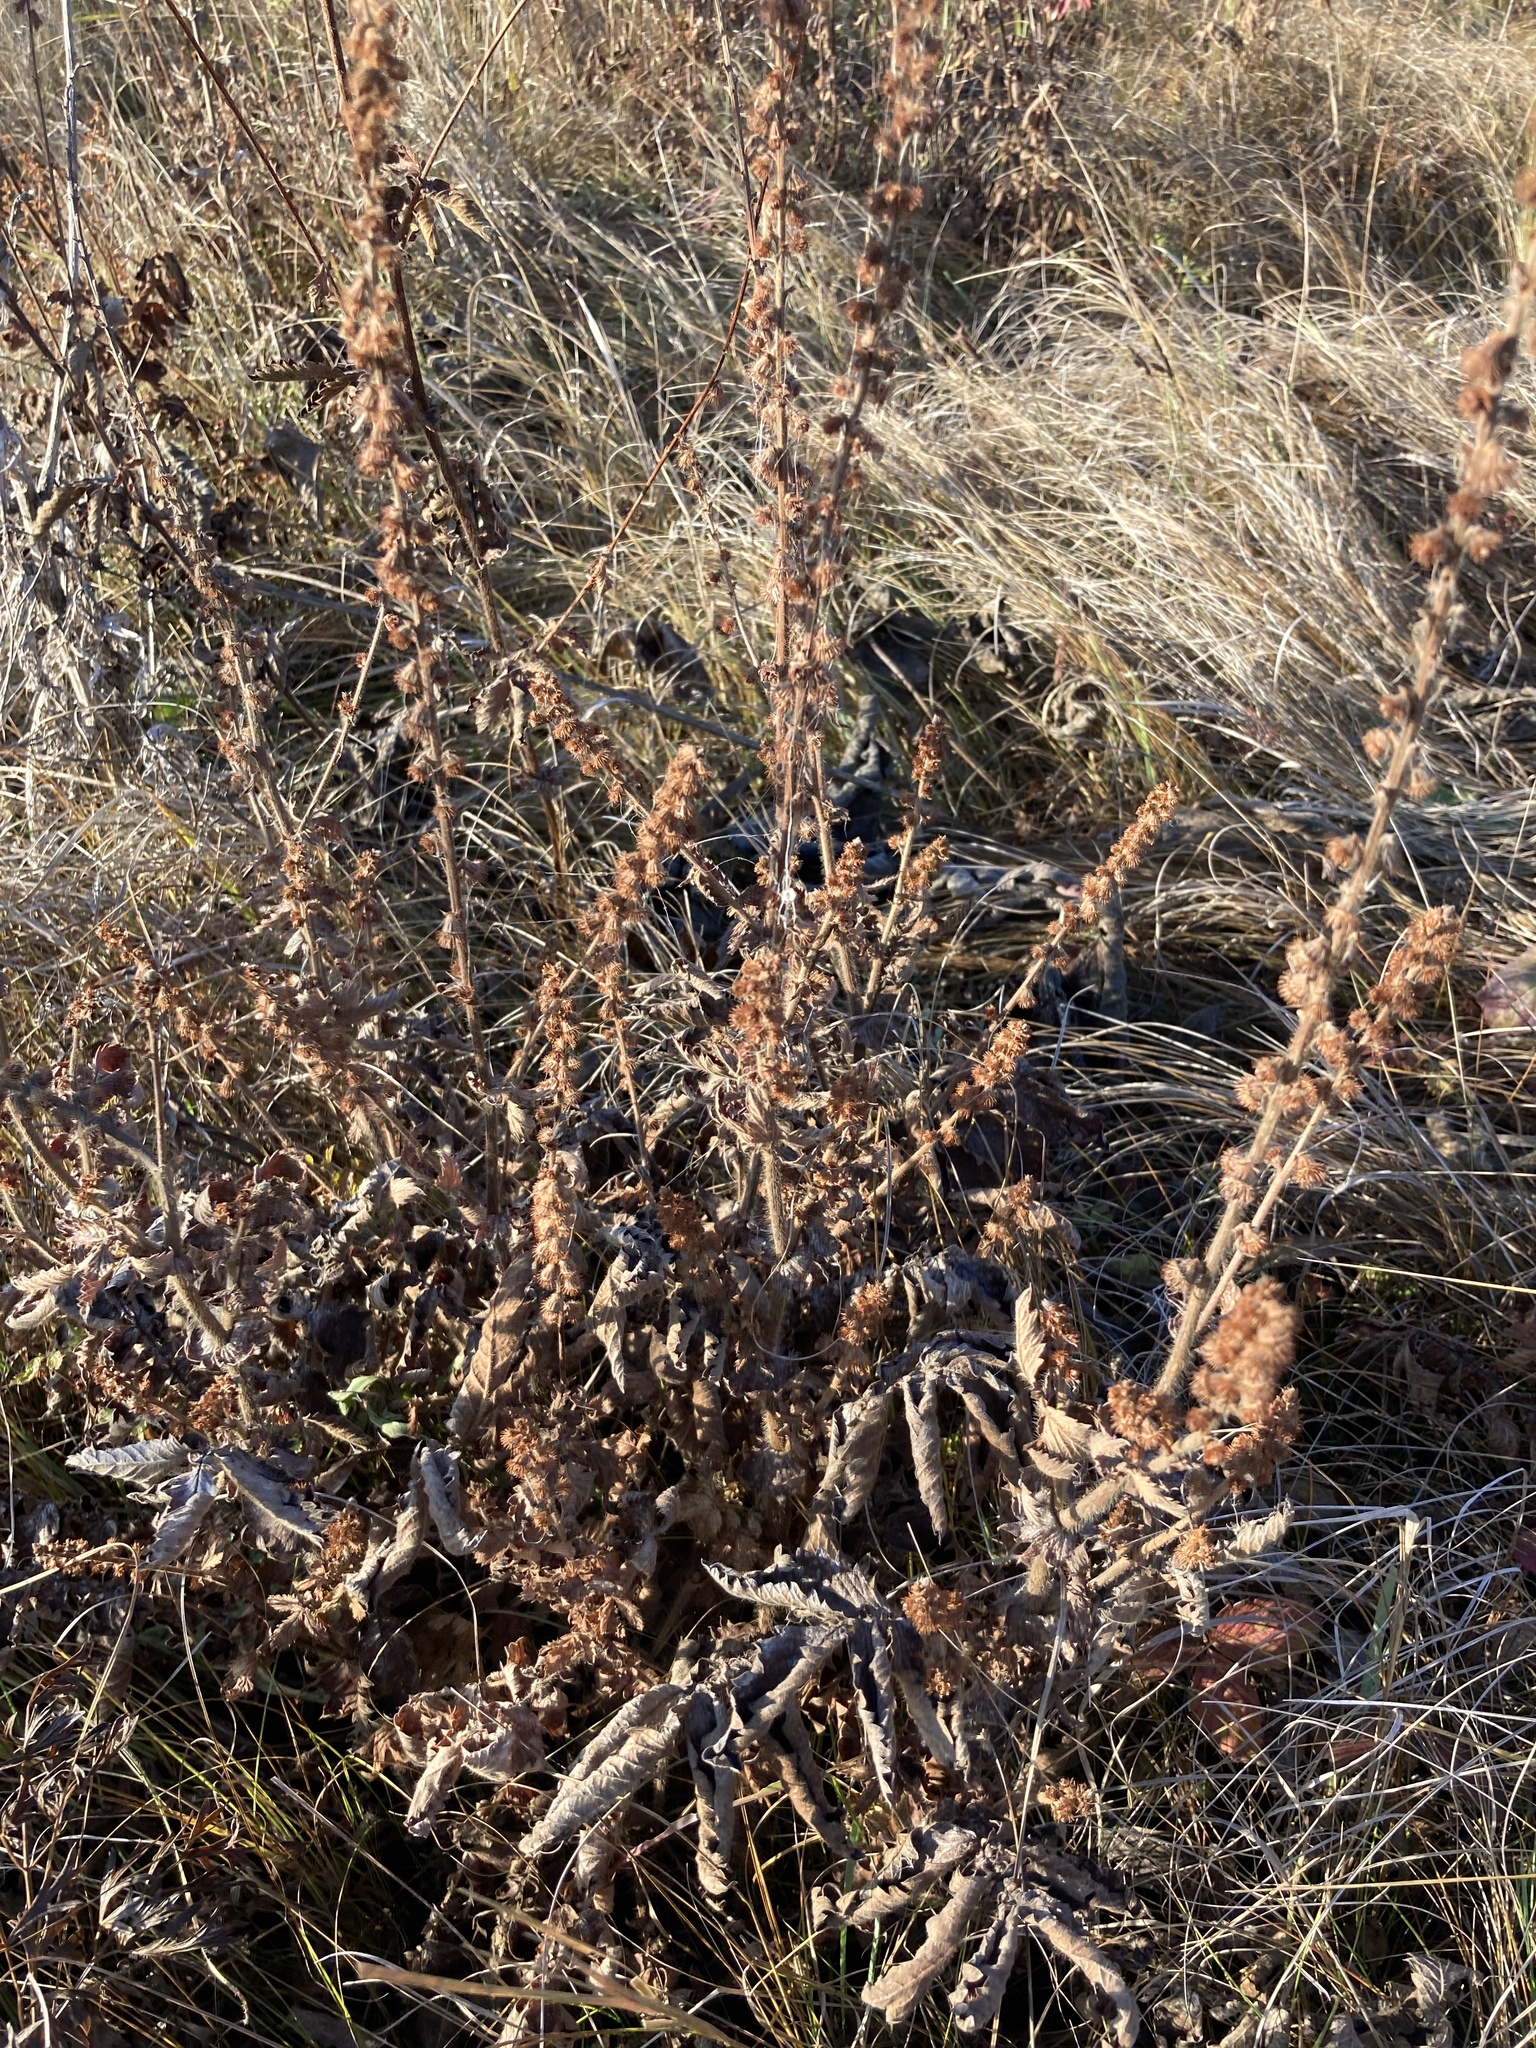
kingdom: Plantae
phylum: Tracheophyta
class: Magnoliopsida
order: Rosales
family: Rosaceae
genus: Agrimonia
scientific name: Agrimonia eupatoria
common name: Agrimony
